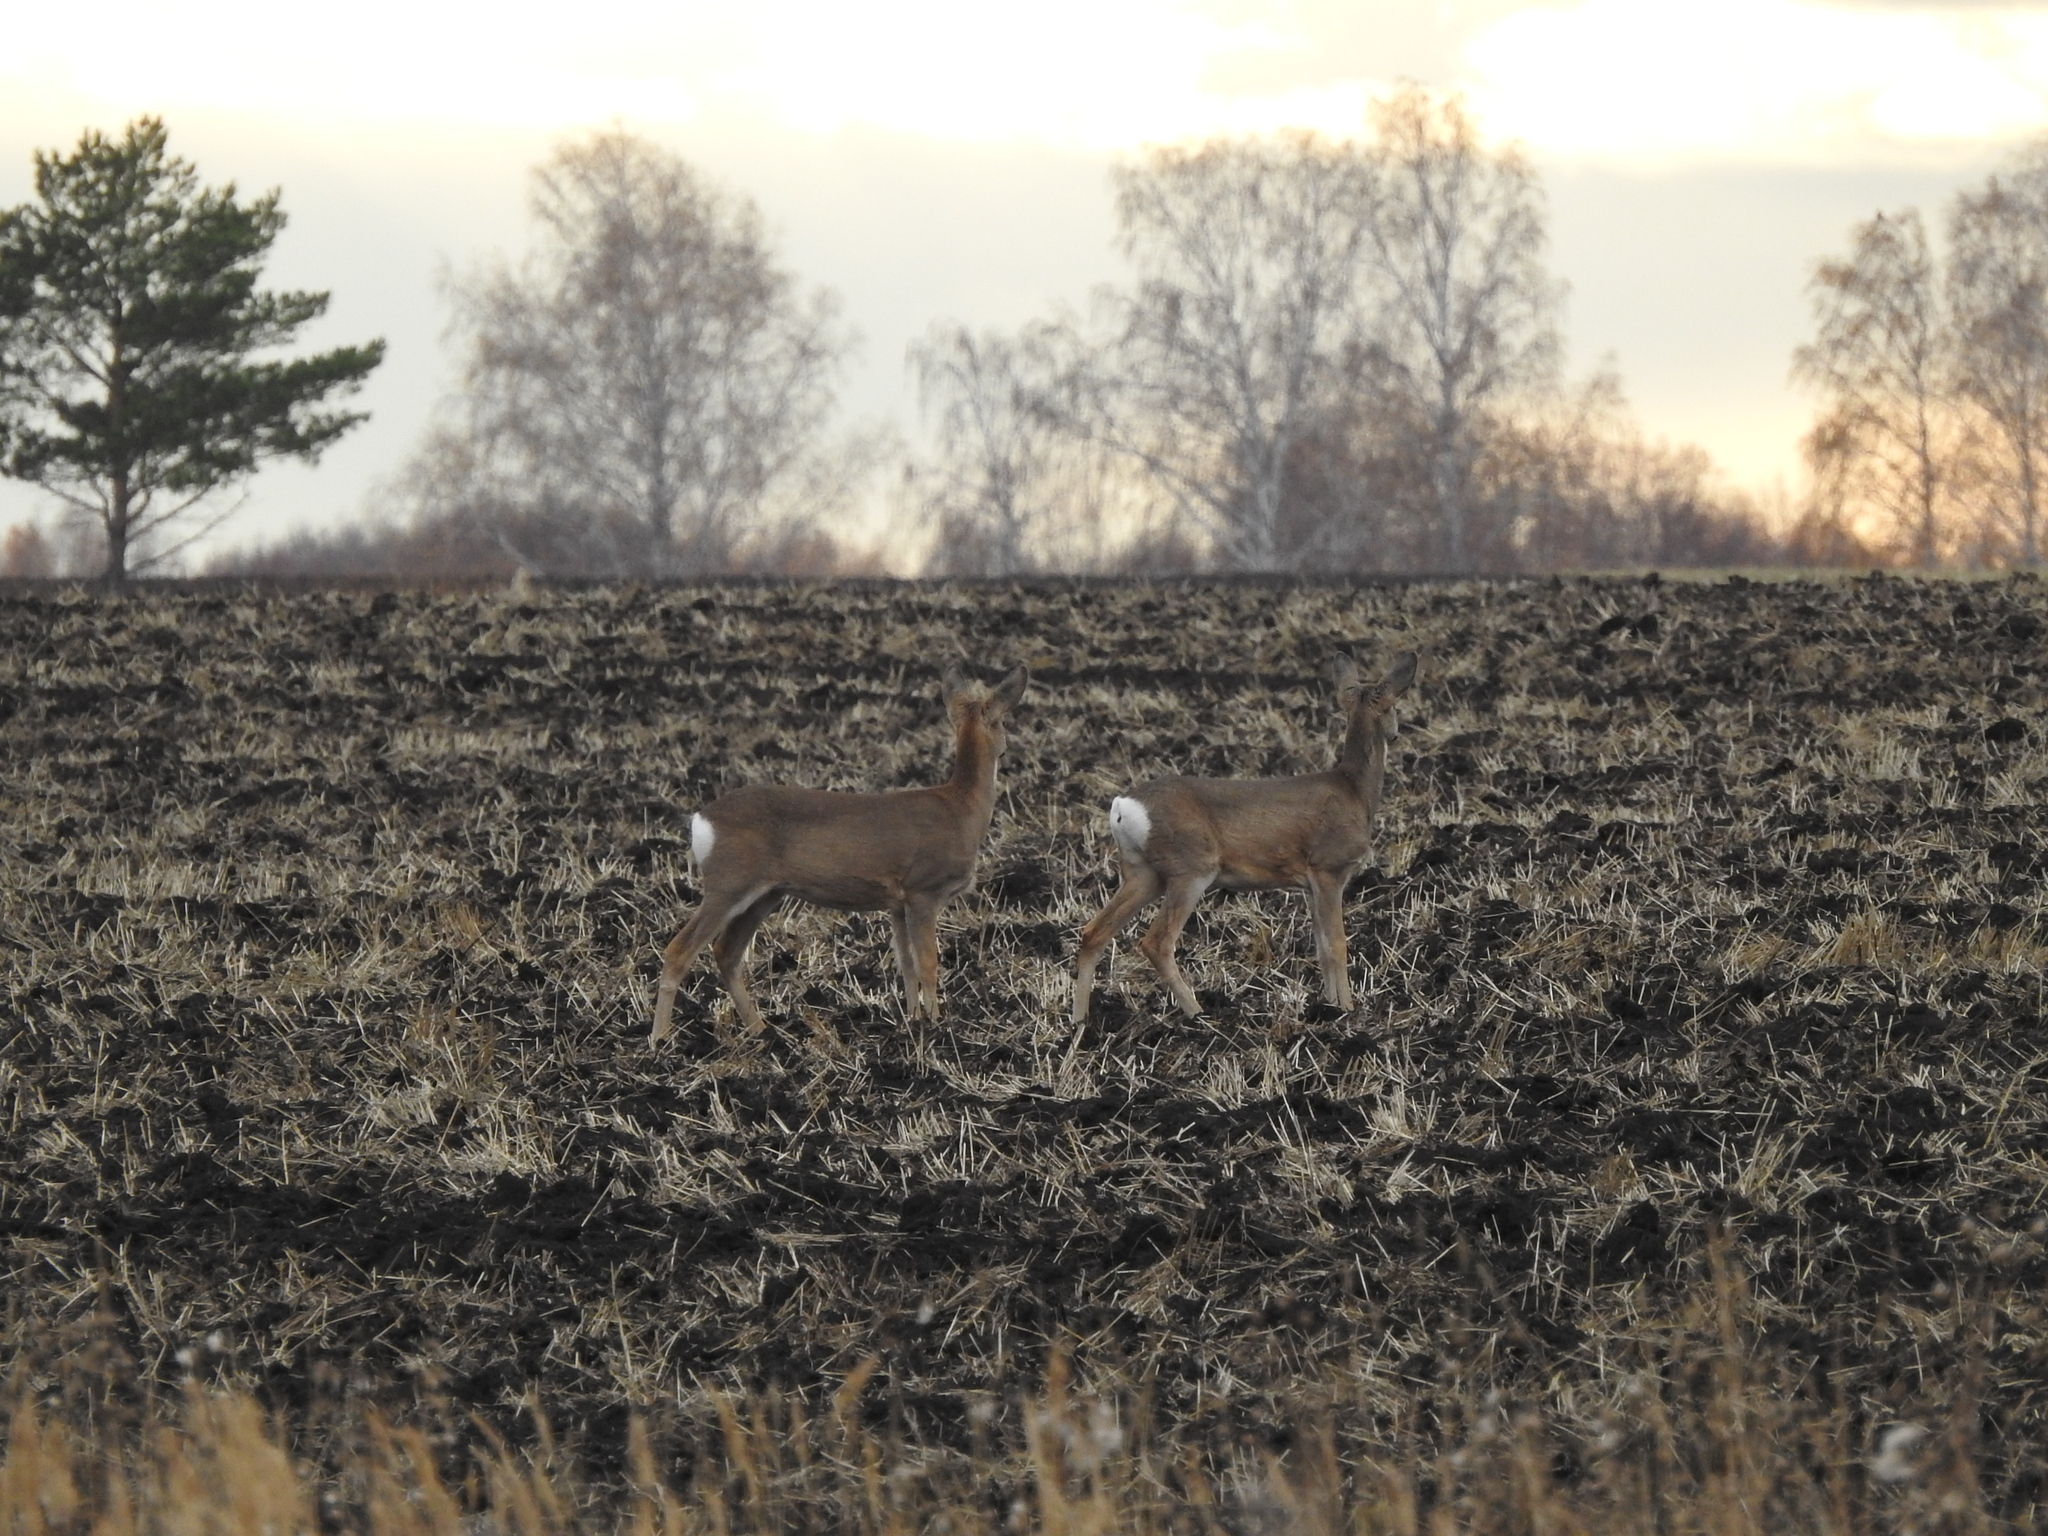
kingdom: Animalia
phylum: Chordata
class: Mammalia
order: Artiodactyla
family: Cervidae
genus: Capreolus
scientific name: Capreolus pygargus
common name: Siberian roe
